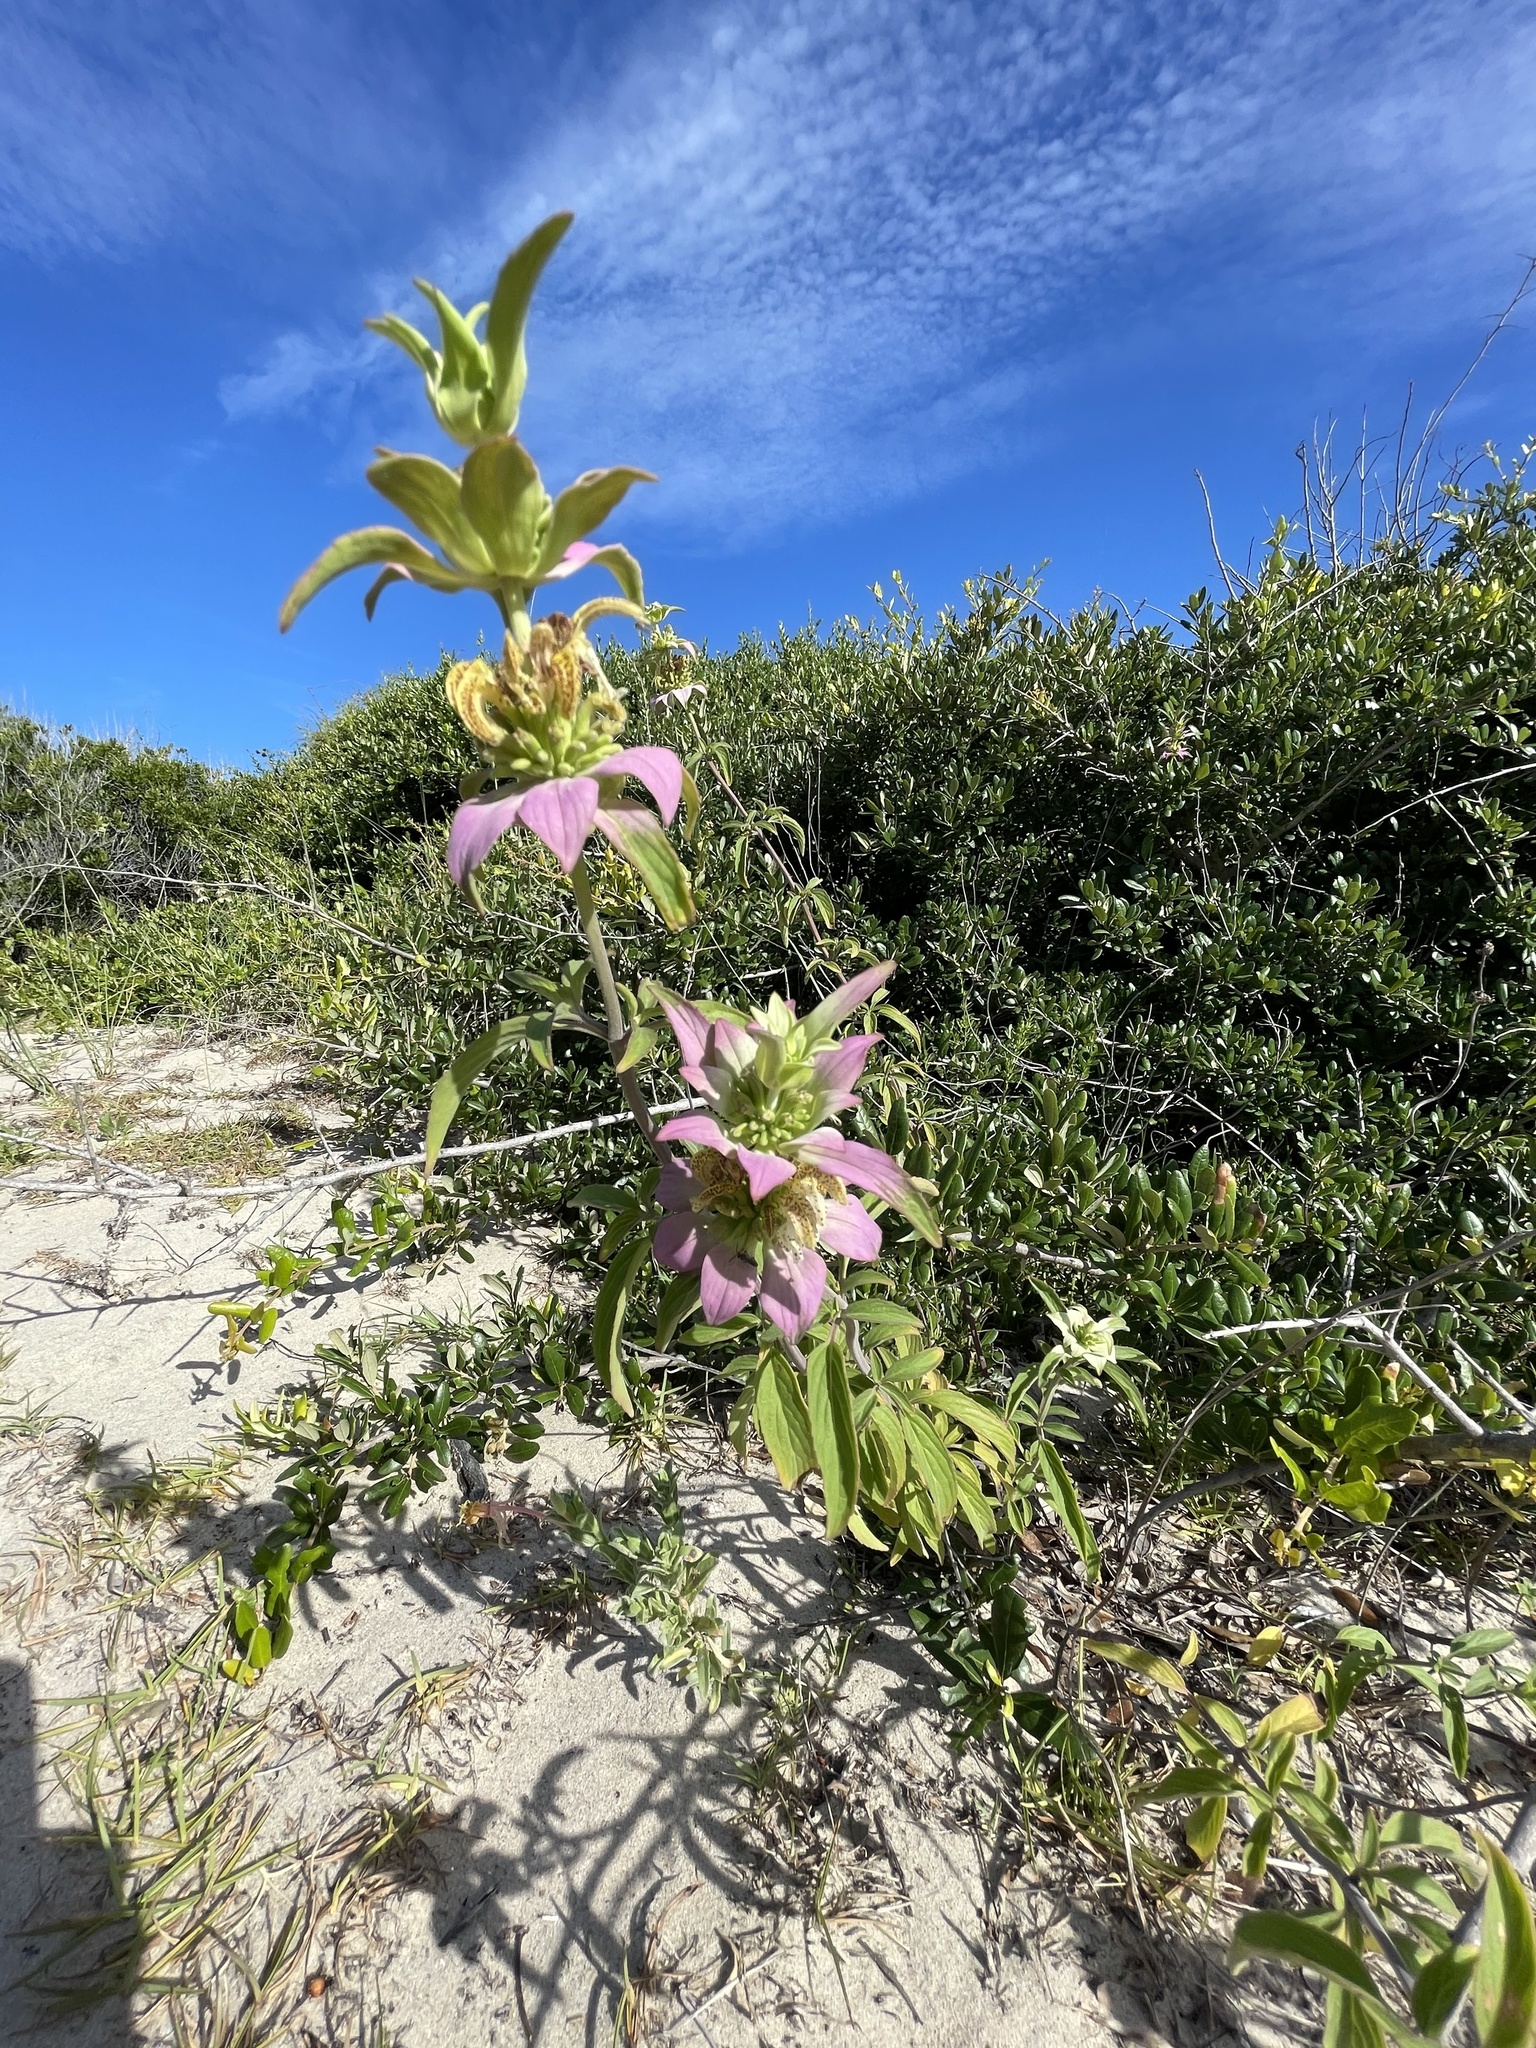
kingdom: Plantae
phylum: Tracheophyta
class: Magnoliopsida
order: Lamiales
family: Lamiaceae
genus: Monarda
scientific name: Monarda punctata
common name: Dotted monarda
